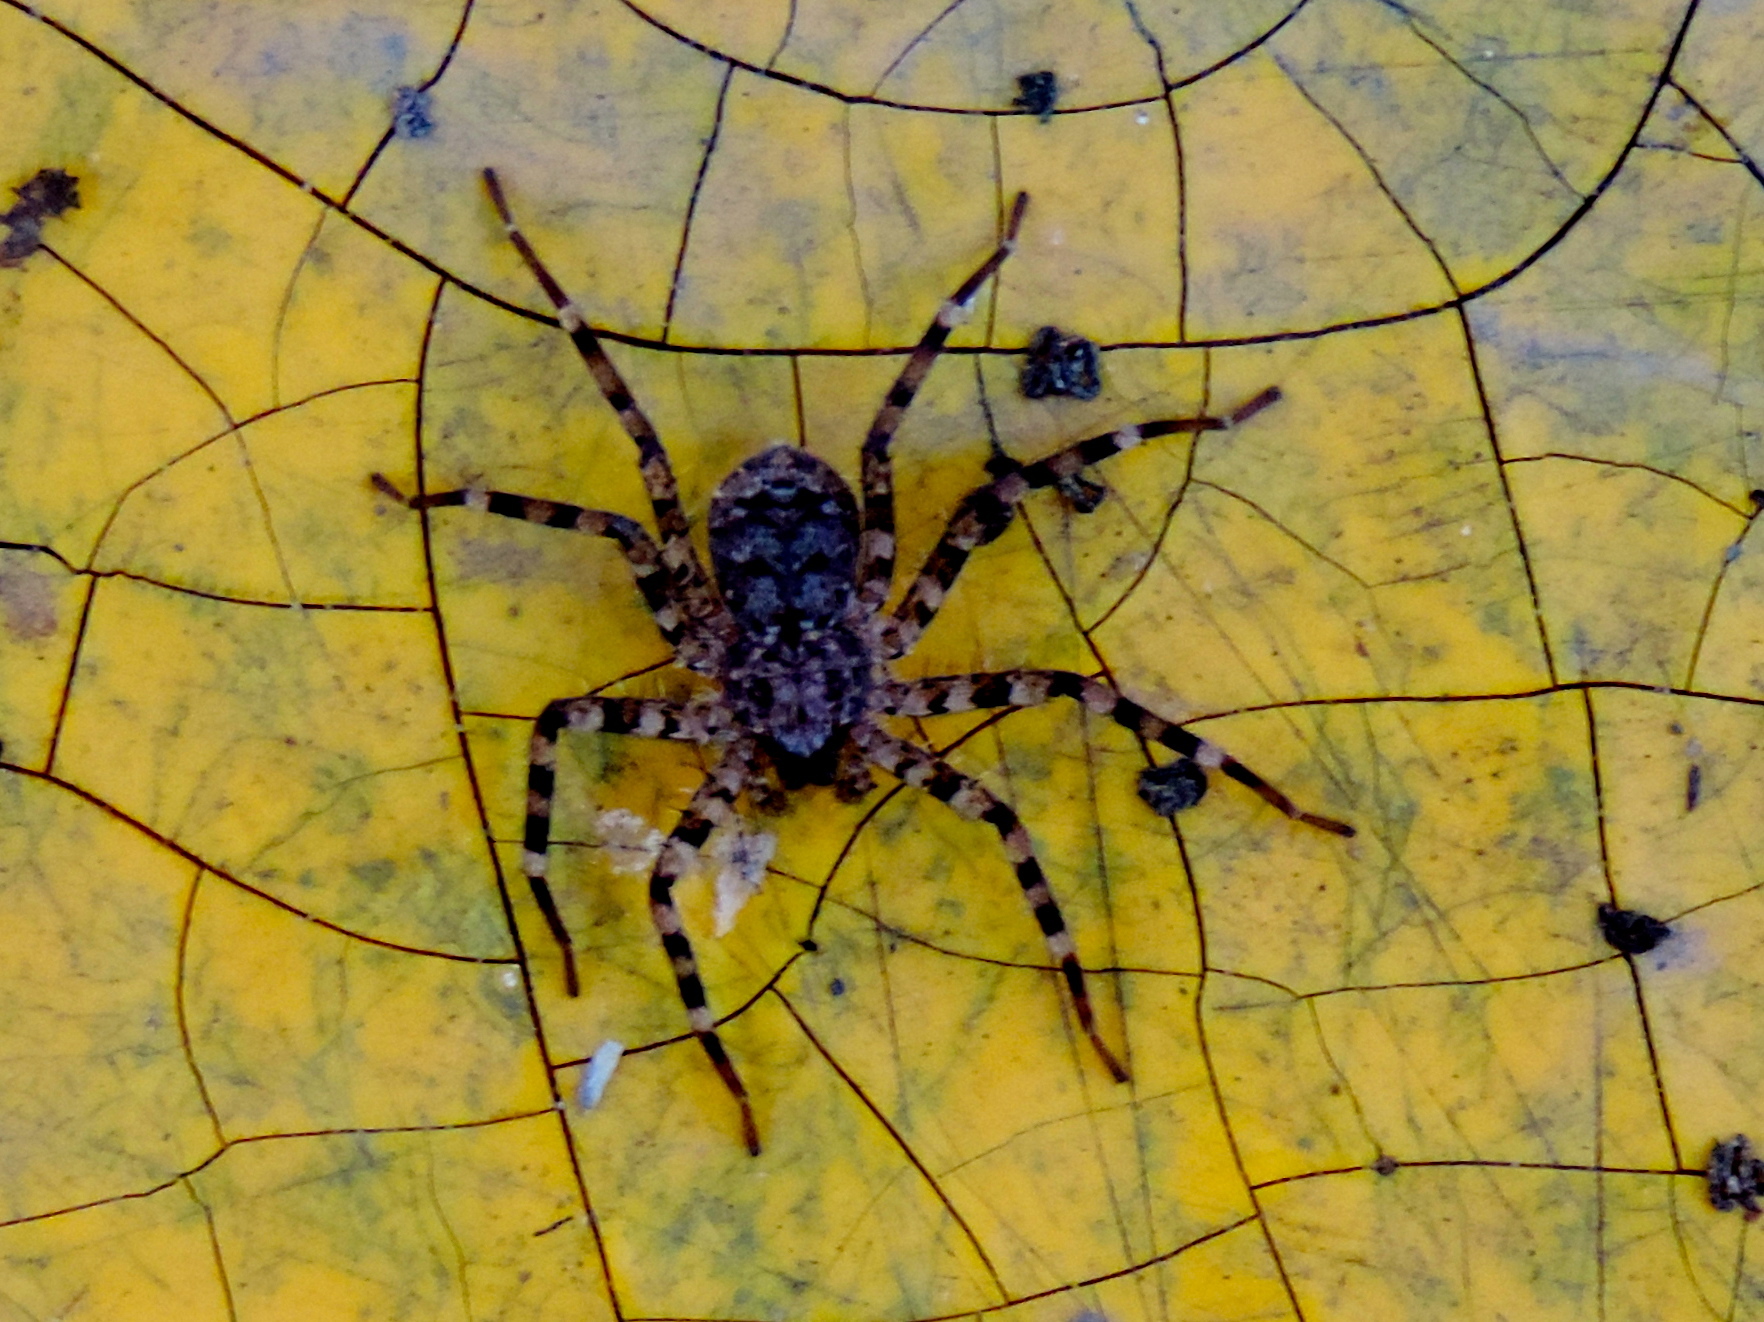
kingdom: Animalia
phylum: Arthropoda
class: Arachnida
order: Araneae
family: Selenopidae
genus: Selenops
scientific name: Selenops
